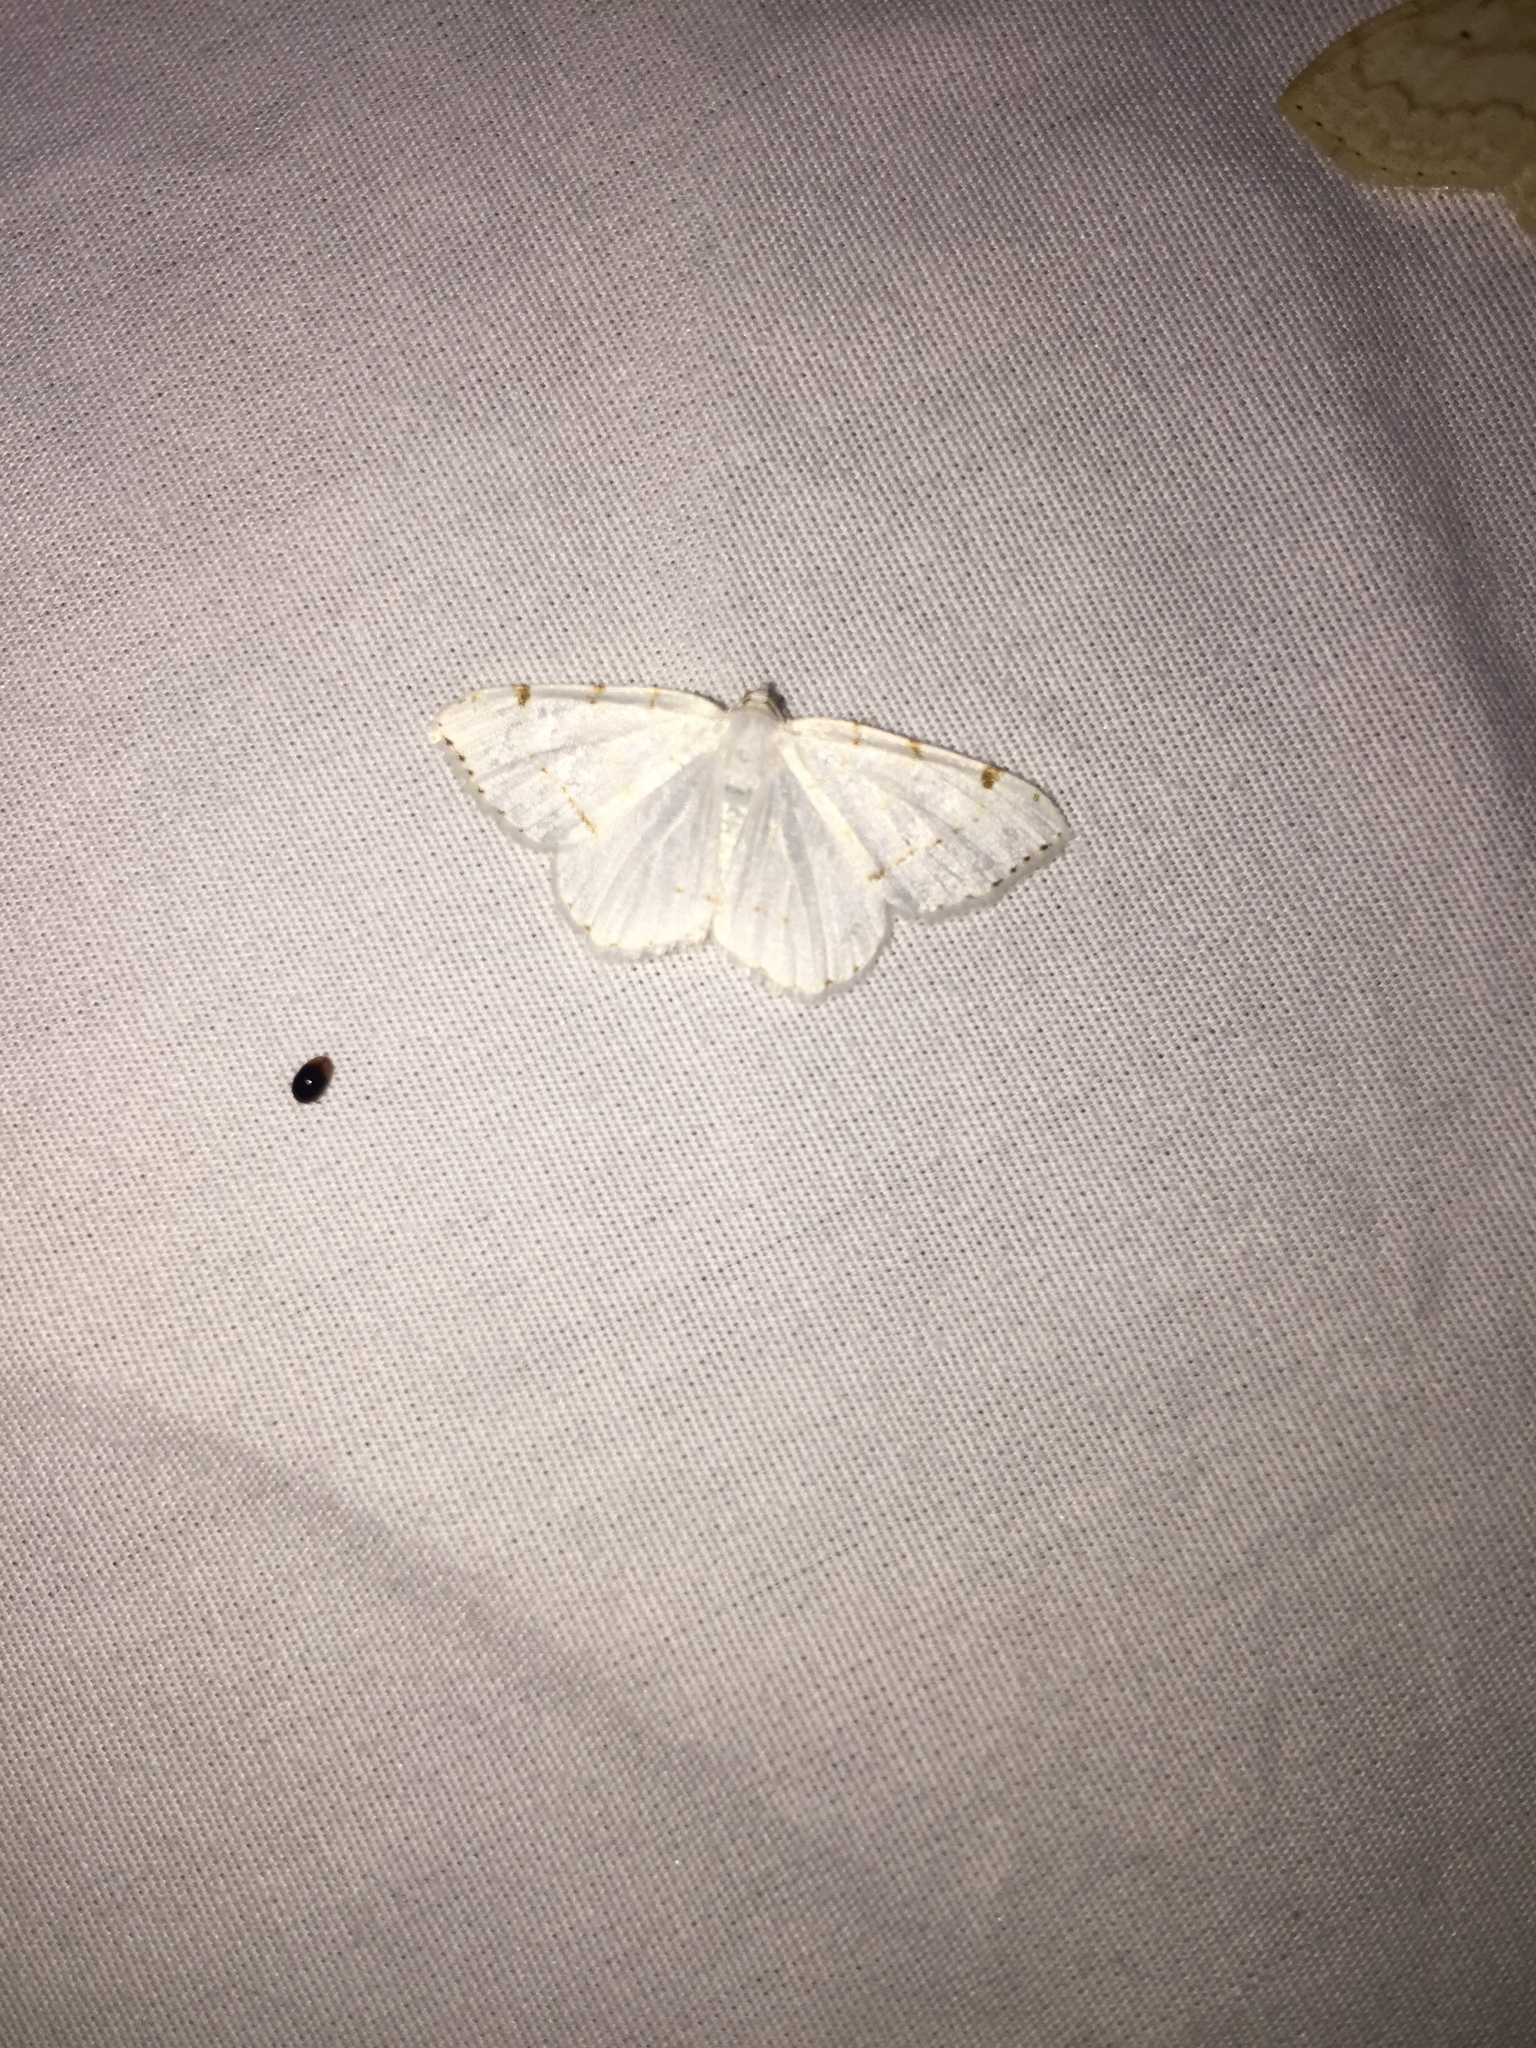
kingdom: Animalia
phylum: Arthropoda
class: Insecta
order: Lepidoptera
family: Geometridae
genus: Macaria
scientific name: Macaria pustularia
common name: Lesser maple spanworm moth
